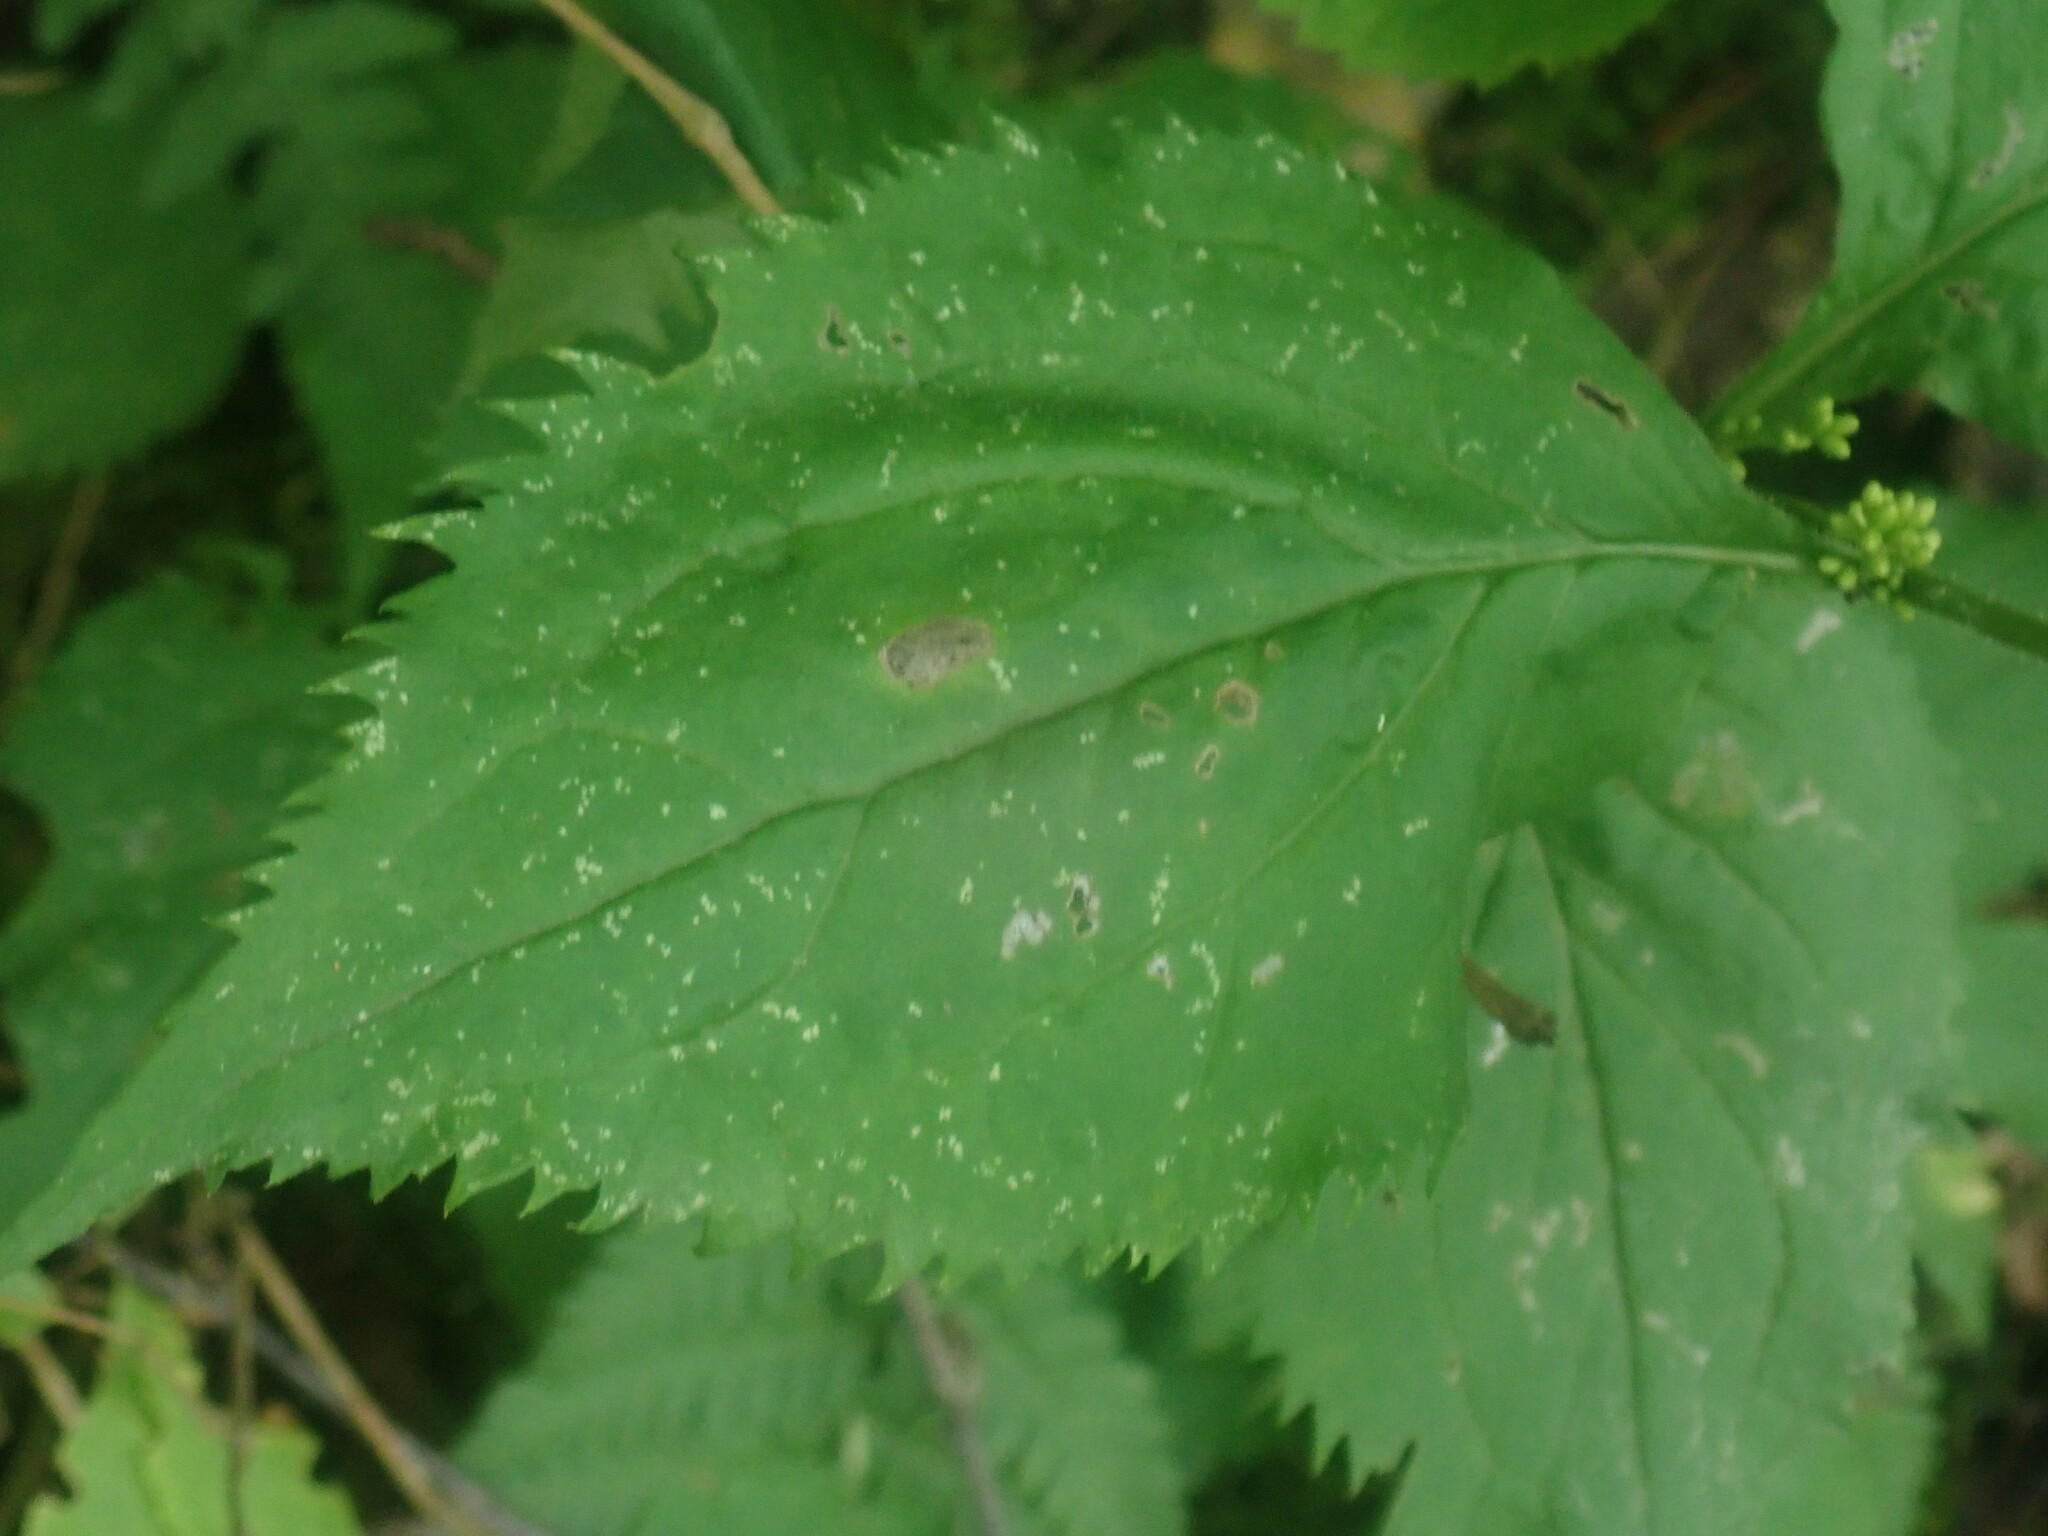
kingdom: Plantae
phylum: Tracheophyta
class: Magnoliopsida
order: Asterales
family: Asteraceae
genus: Solidago
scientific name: Solidago flexicaulis
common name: Zig-zag goldenrod
